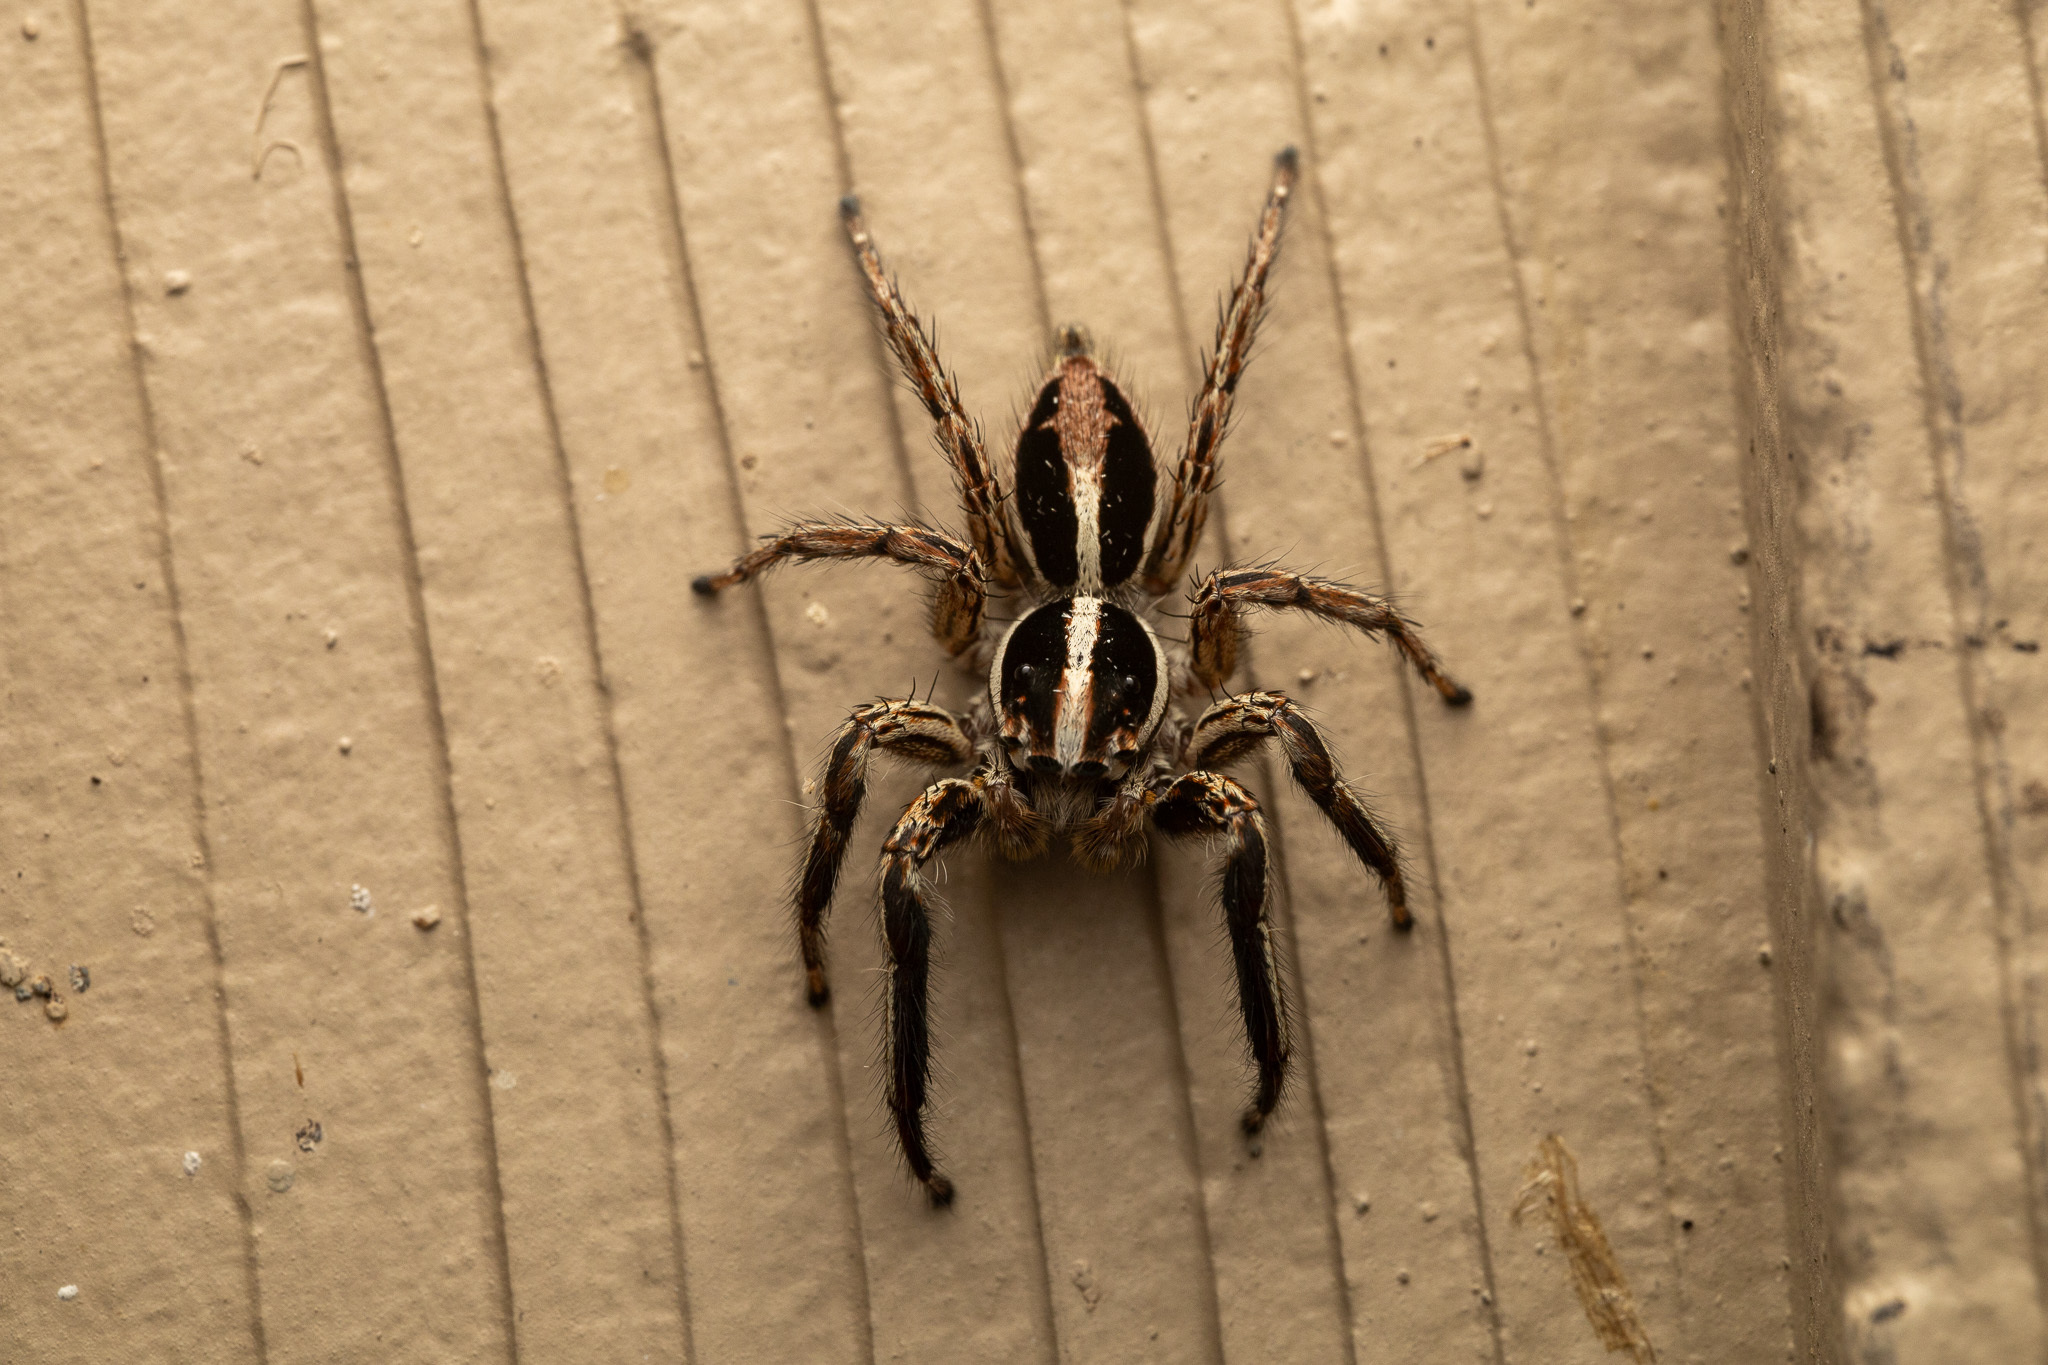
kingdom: Animalia
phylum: Arthropoda
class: Arachnida
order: Araneae
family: Salticidae
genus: Plexippus
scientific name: Plexippus paykulli
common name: Pantropical jumper
